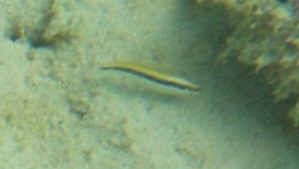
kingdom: Animalia
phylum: Chordata
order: Perciformes
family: Labridae
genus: Halichoeres
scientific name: Halichoeres bivittatus
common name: Slippery dick
